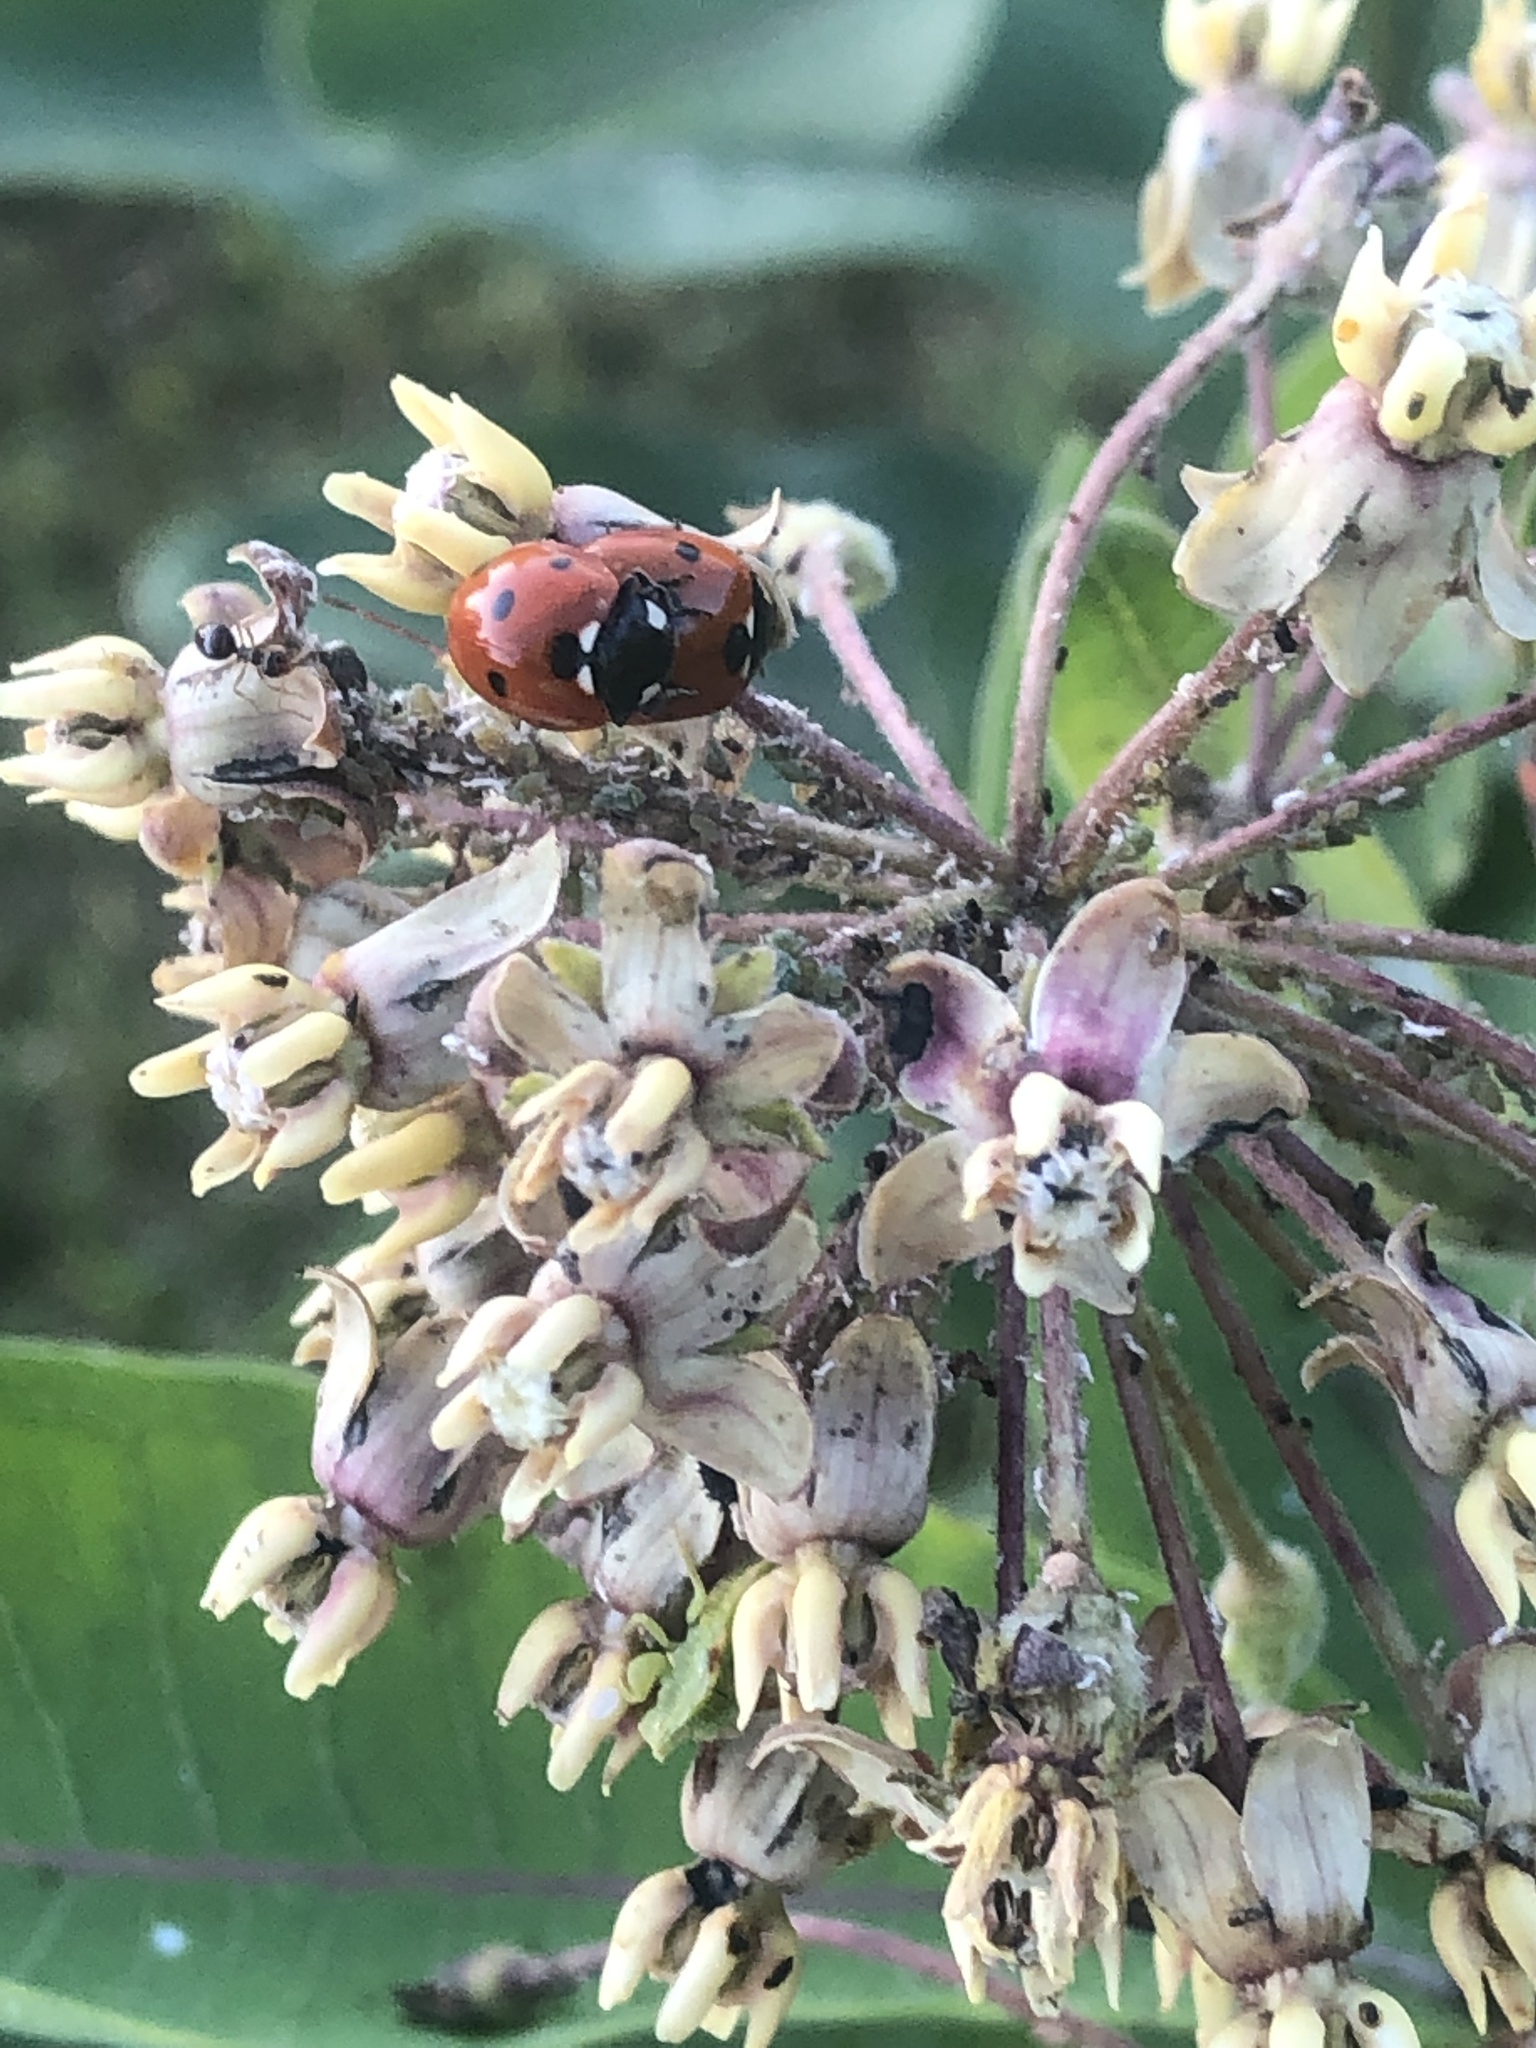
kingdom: Animalia
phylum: Arthropoda
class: Insecta
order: Coleoptera
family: Coccinellidae
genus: Coccinella
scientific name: Coccinella septempunctata
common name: Sevenspotted lady beetle
